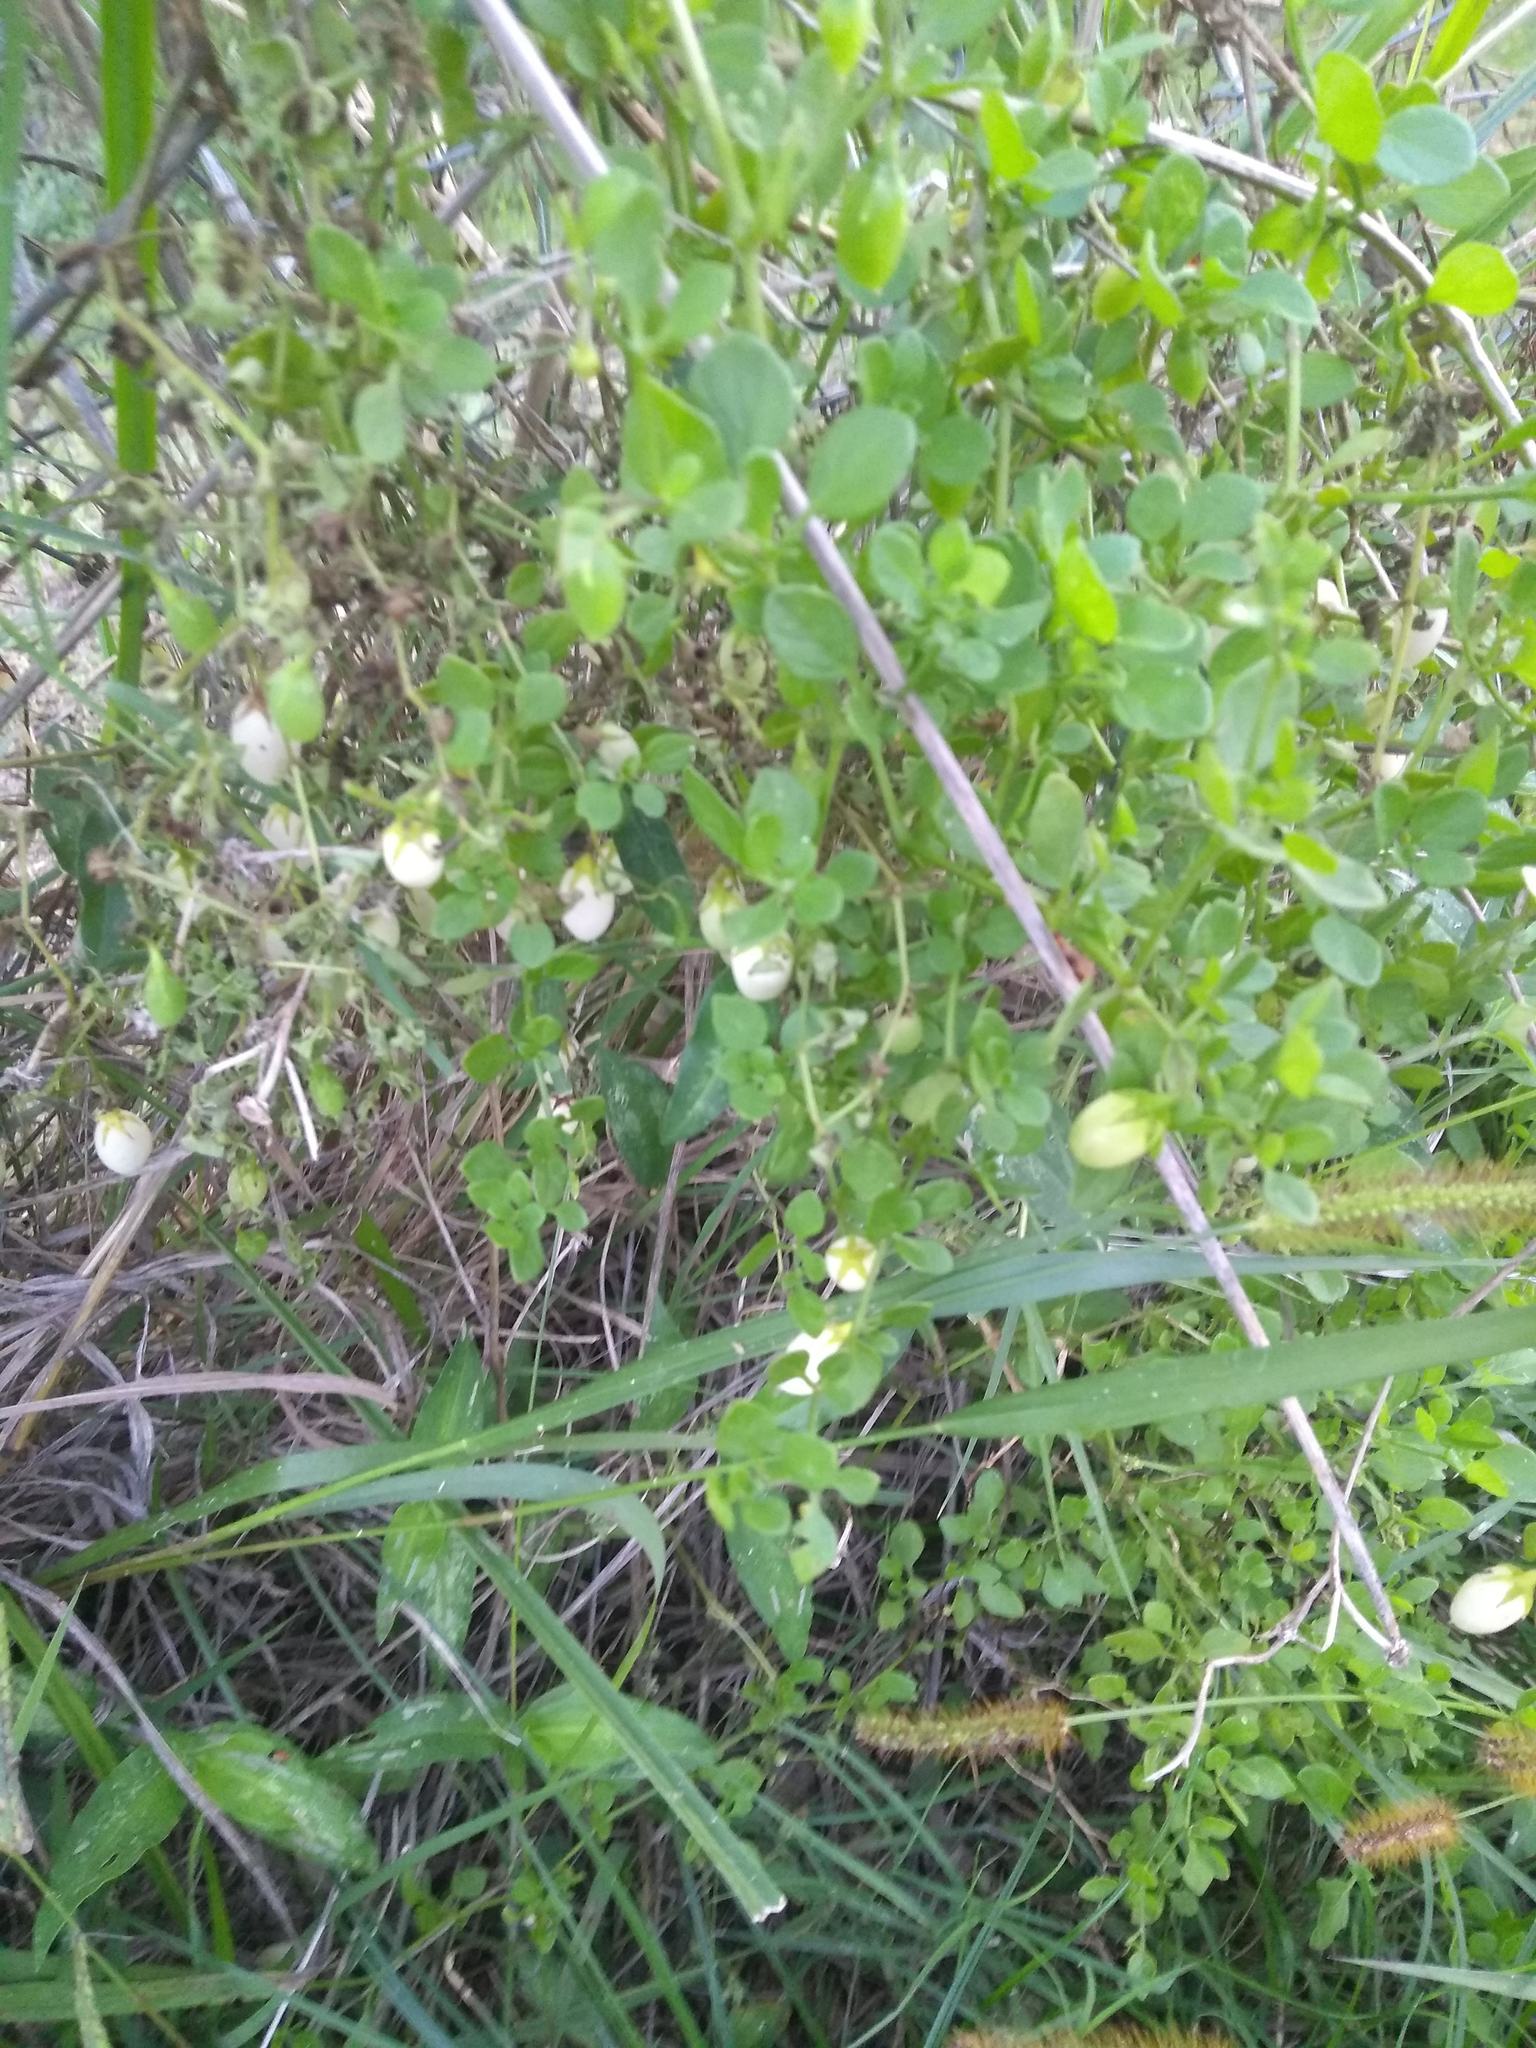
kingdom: Plantae
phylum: Tracheophyta
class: Magnoliopsida
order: Solanales
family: Solanaceae
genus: Salpichroa
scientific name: Salpichroa origanifolia
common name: Lily-of-the-valley-vine
